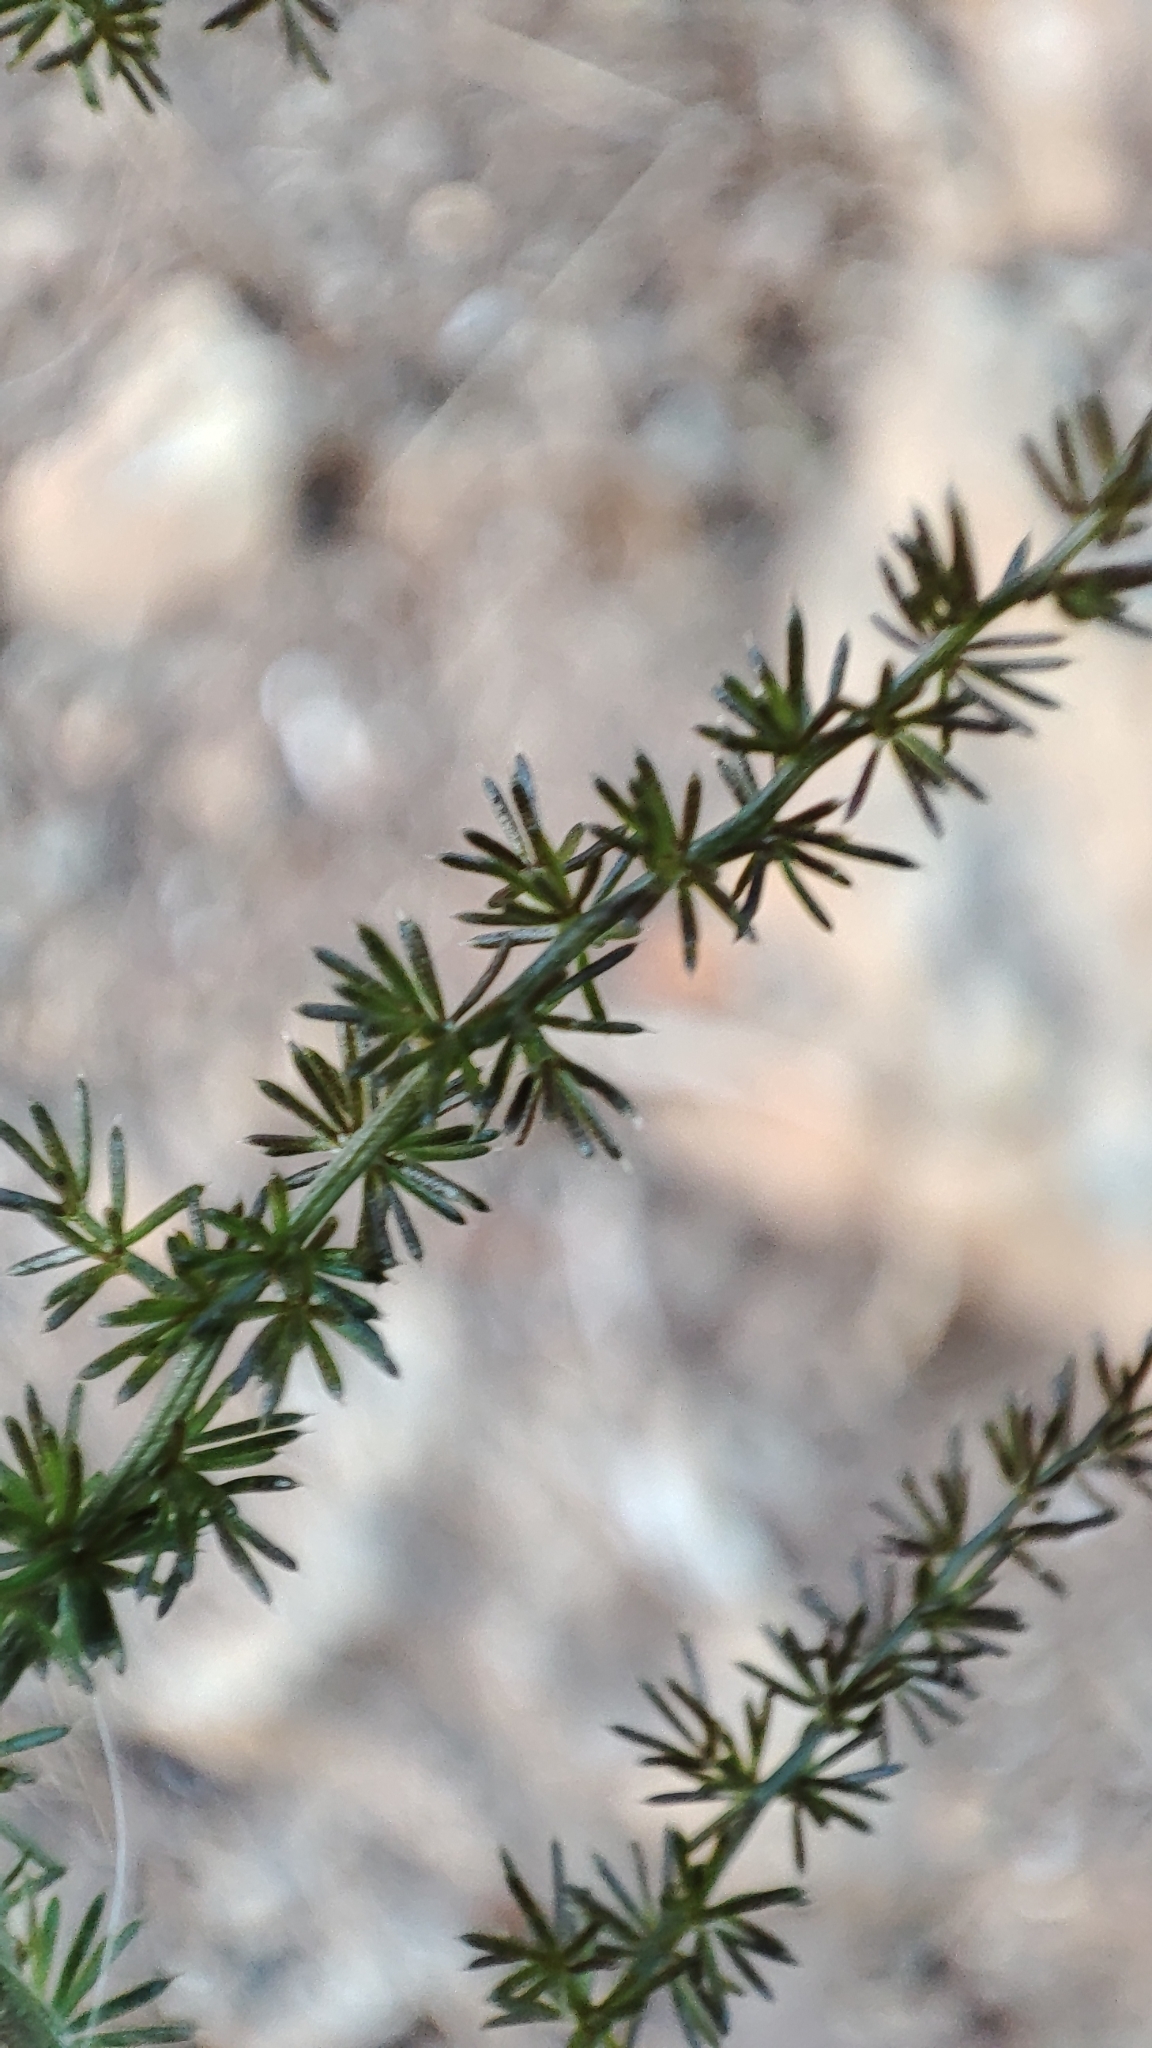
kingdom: Plantae
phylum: Tracheophyta
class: Liliopsida
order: Asparagales
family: Asparagaceae
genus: Asparagus
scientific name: Asparagus acutifolius
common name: Wild asparagus
